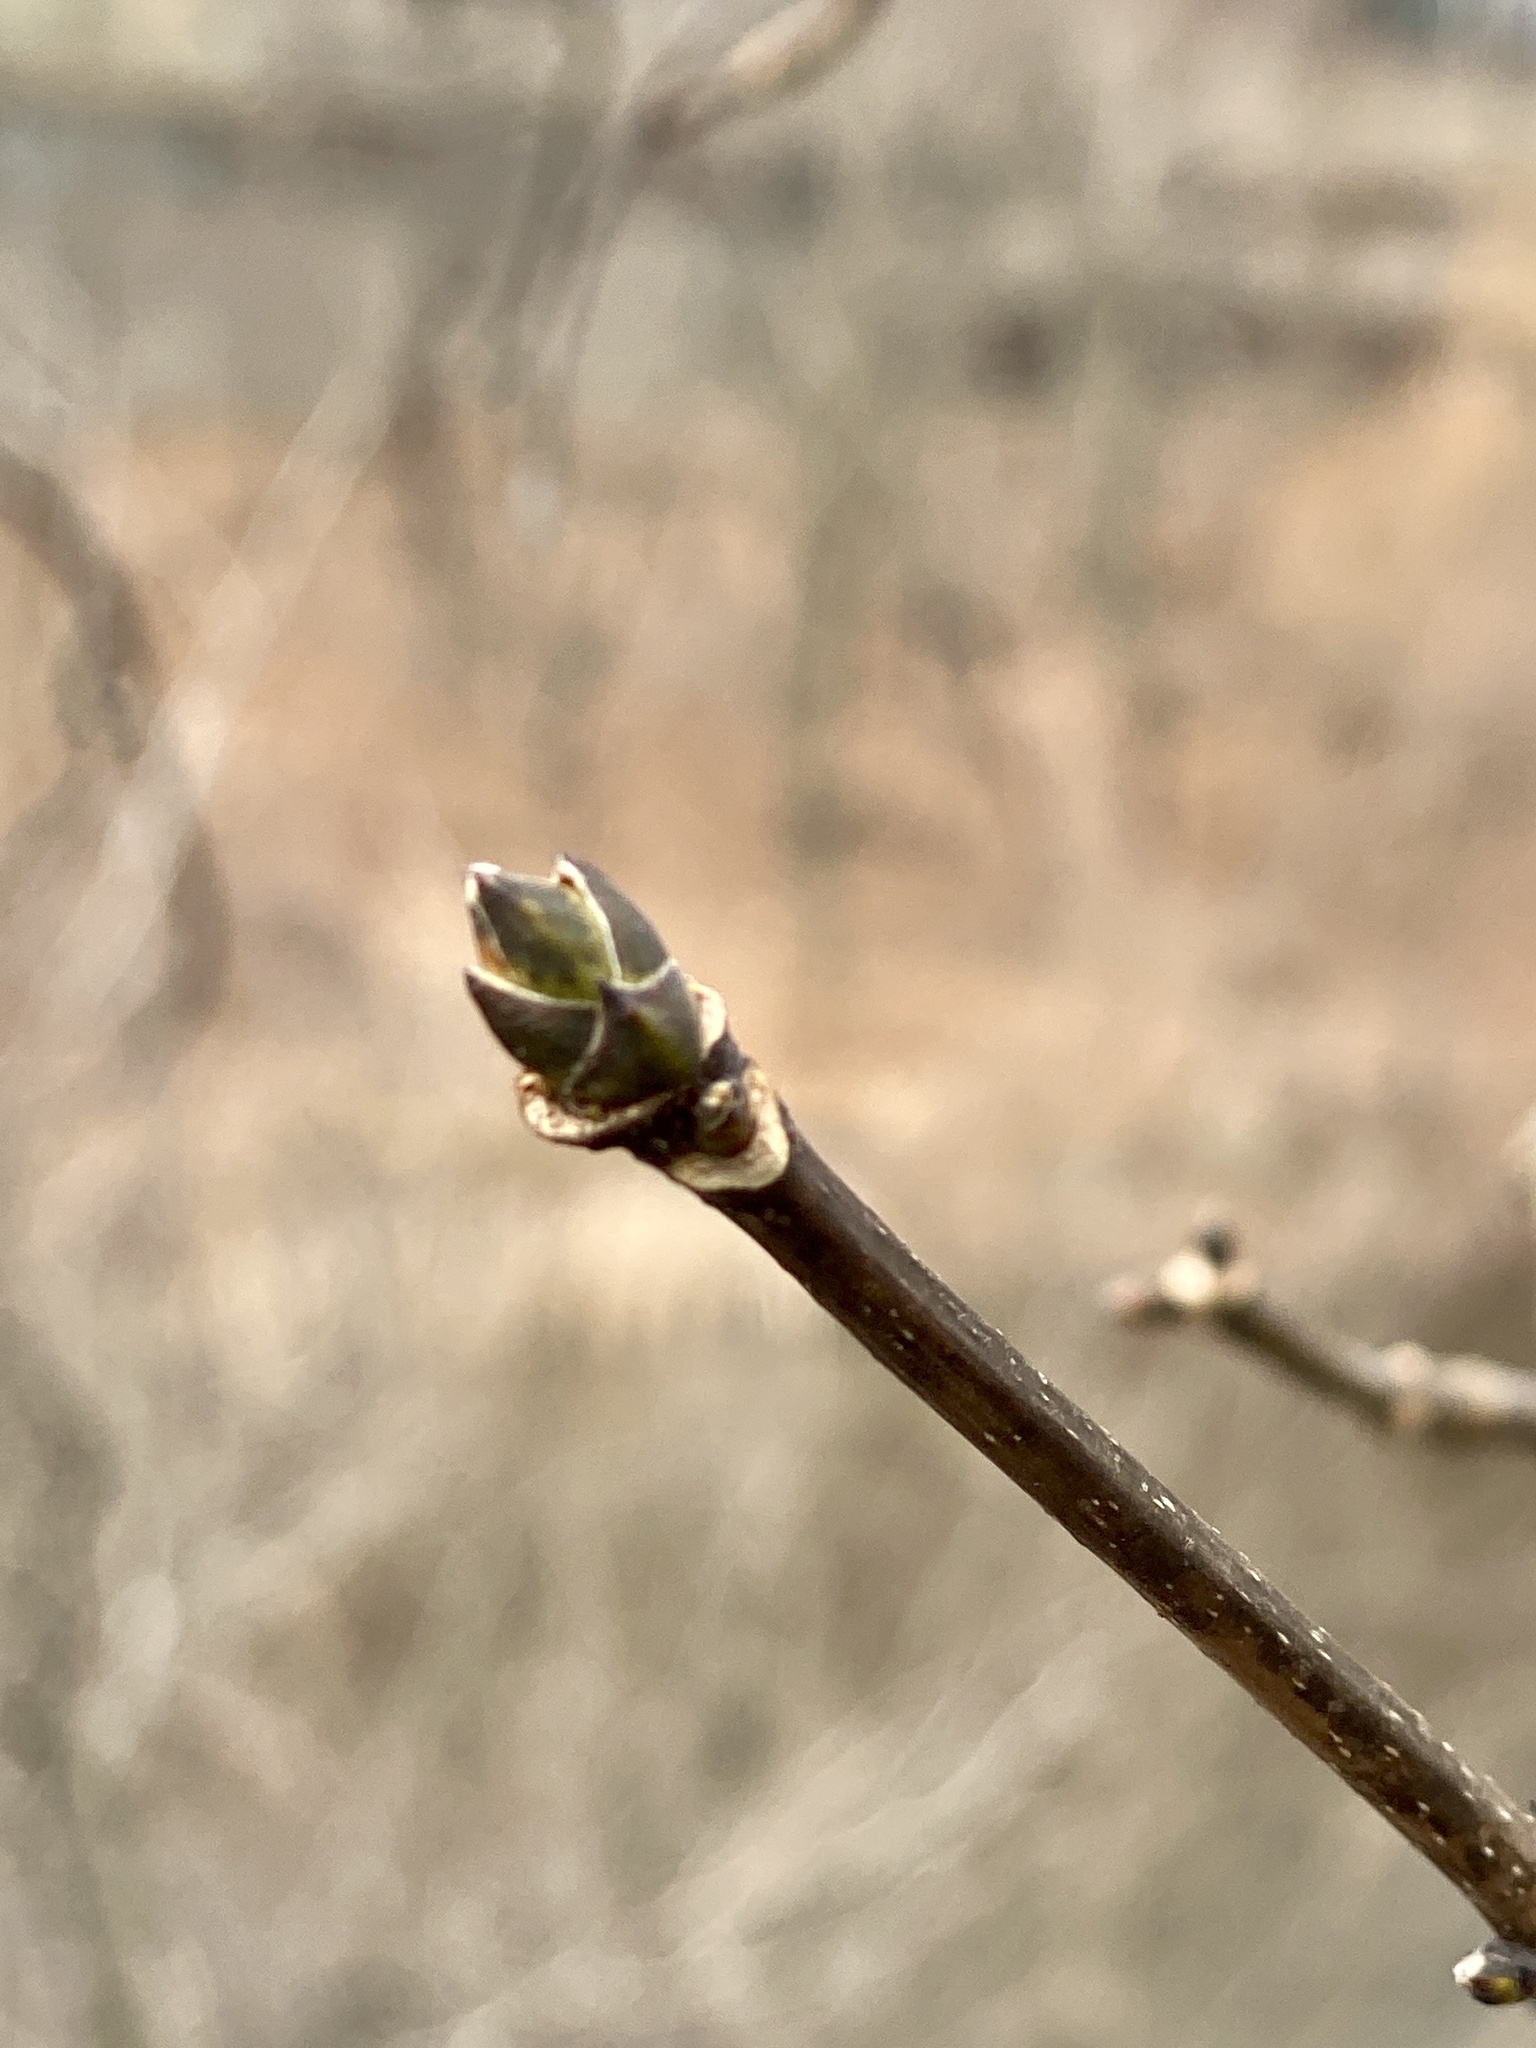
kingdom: Plantae
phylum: Tracheophyta
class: Magnoliopsida
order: Sapindales
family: Sapindaceae
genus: Acer
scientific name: Acer pseudoplatanus
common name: Sycamore
